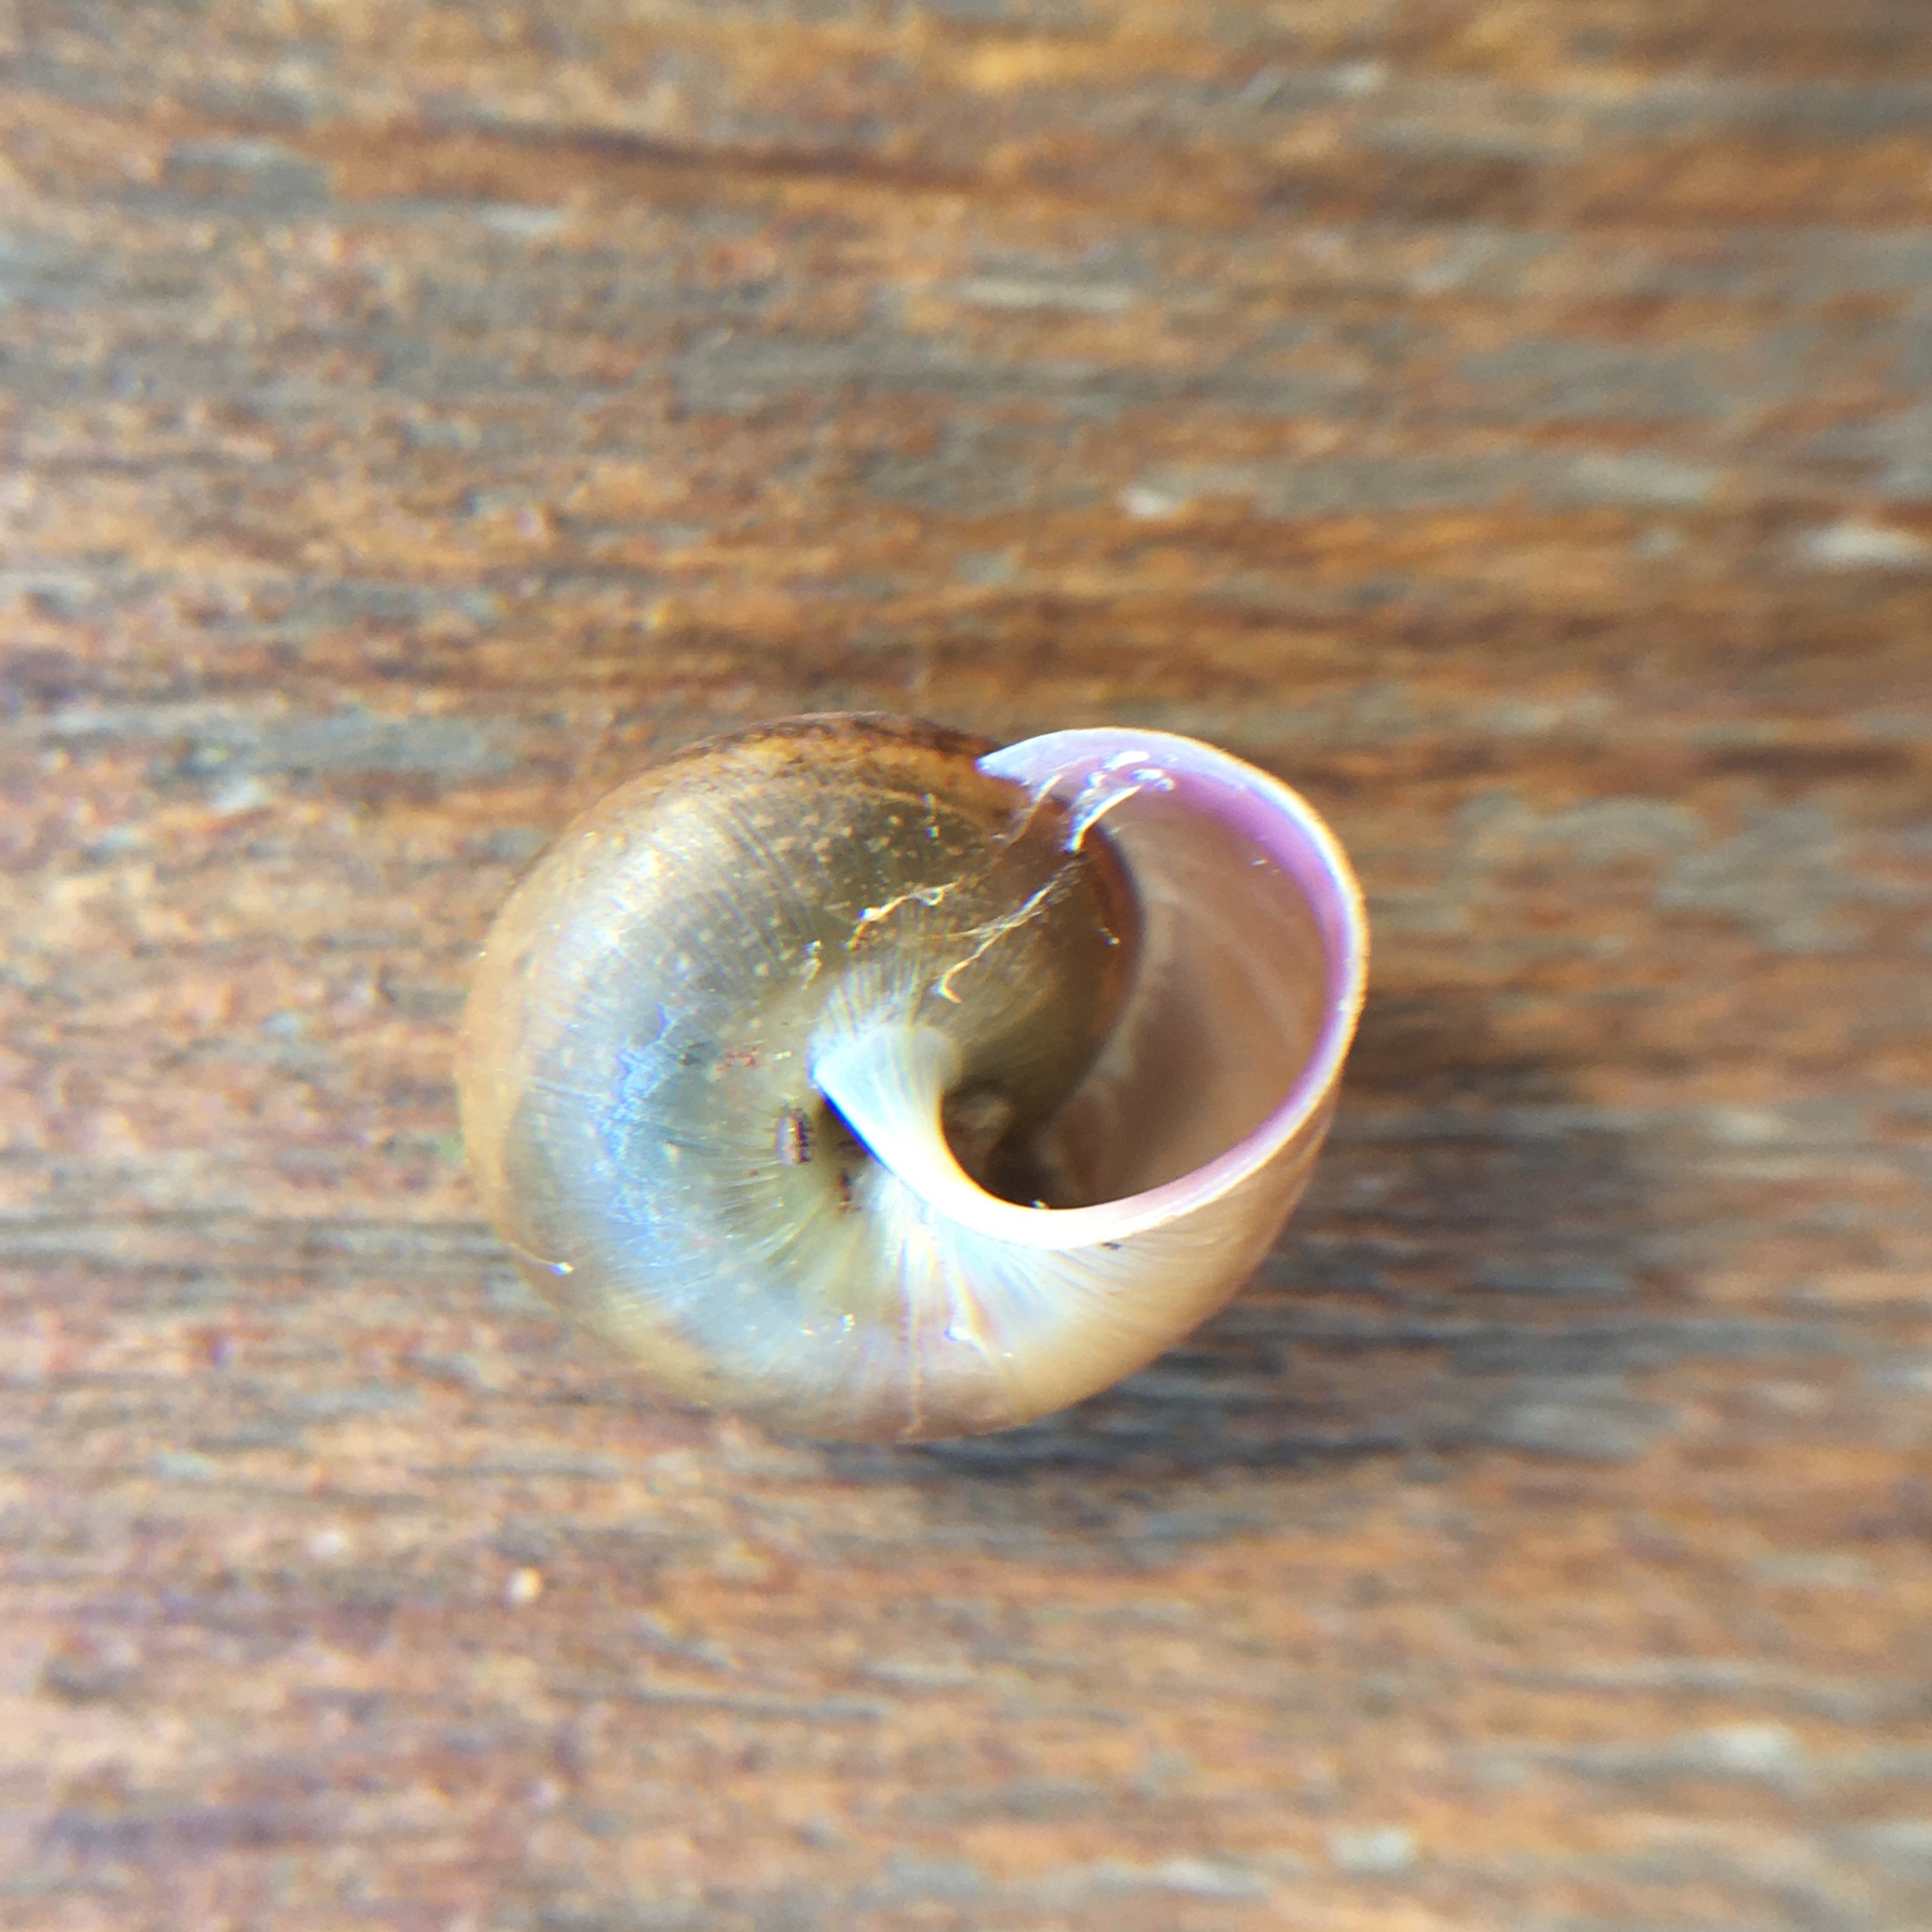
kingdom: Animalia
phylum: Mollusca
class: Gastropoda
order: Stylommatophora
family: Camaenidae
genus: Bradybaena
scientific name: Bradybaena similaris
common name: Asian trampsnail
